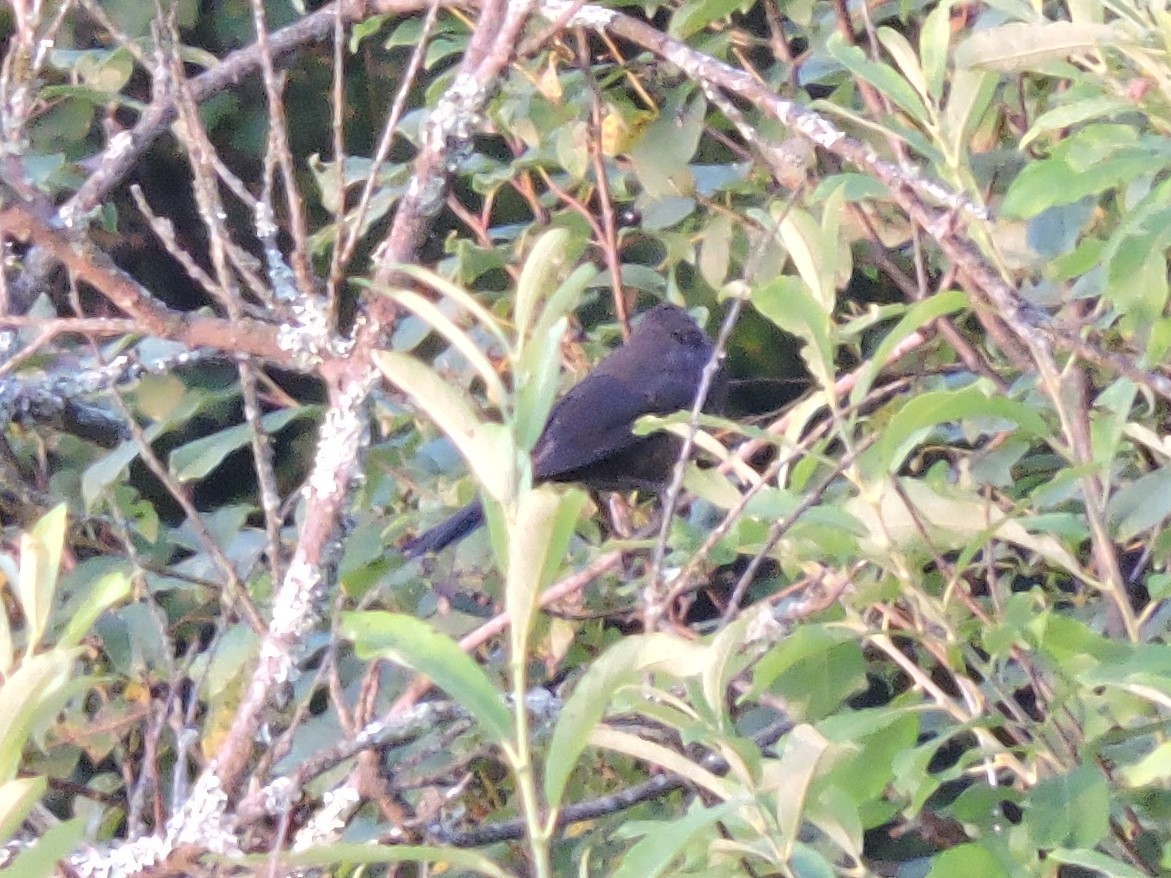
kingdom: Animalia
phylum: Chordata
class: Aves
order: Passeriformes
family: Turdidae
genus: Turdus
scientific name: Turdus merula
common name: Common blackbird
